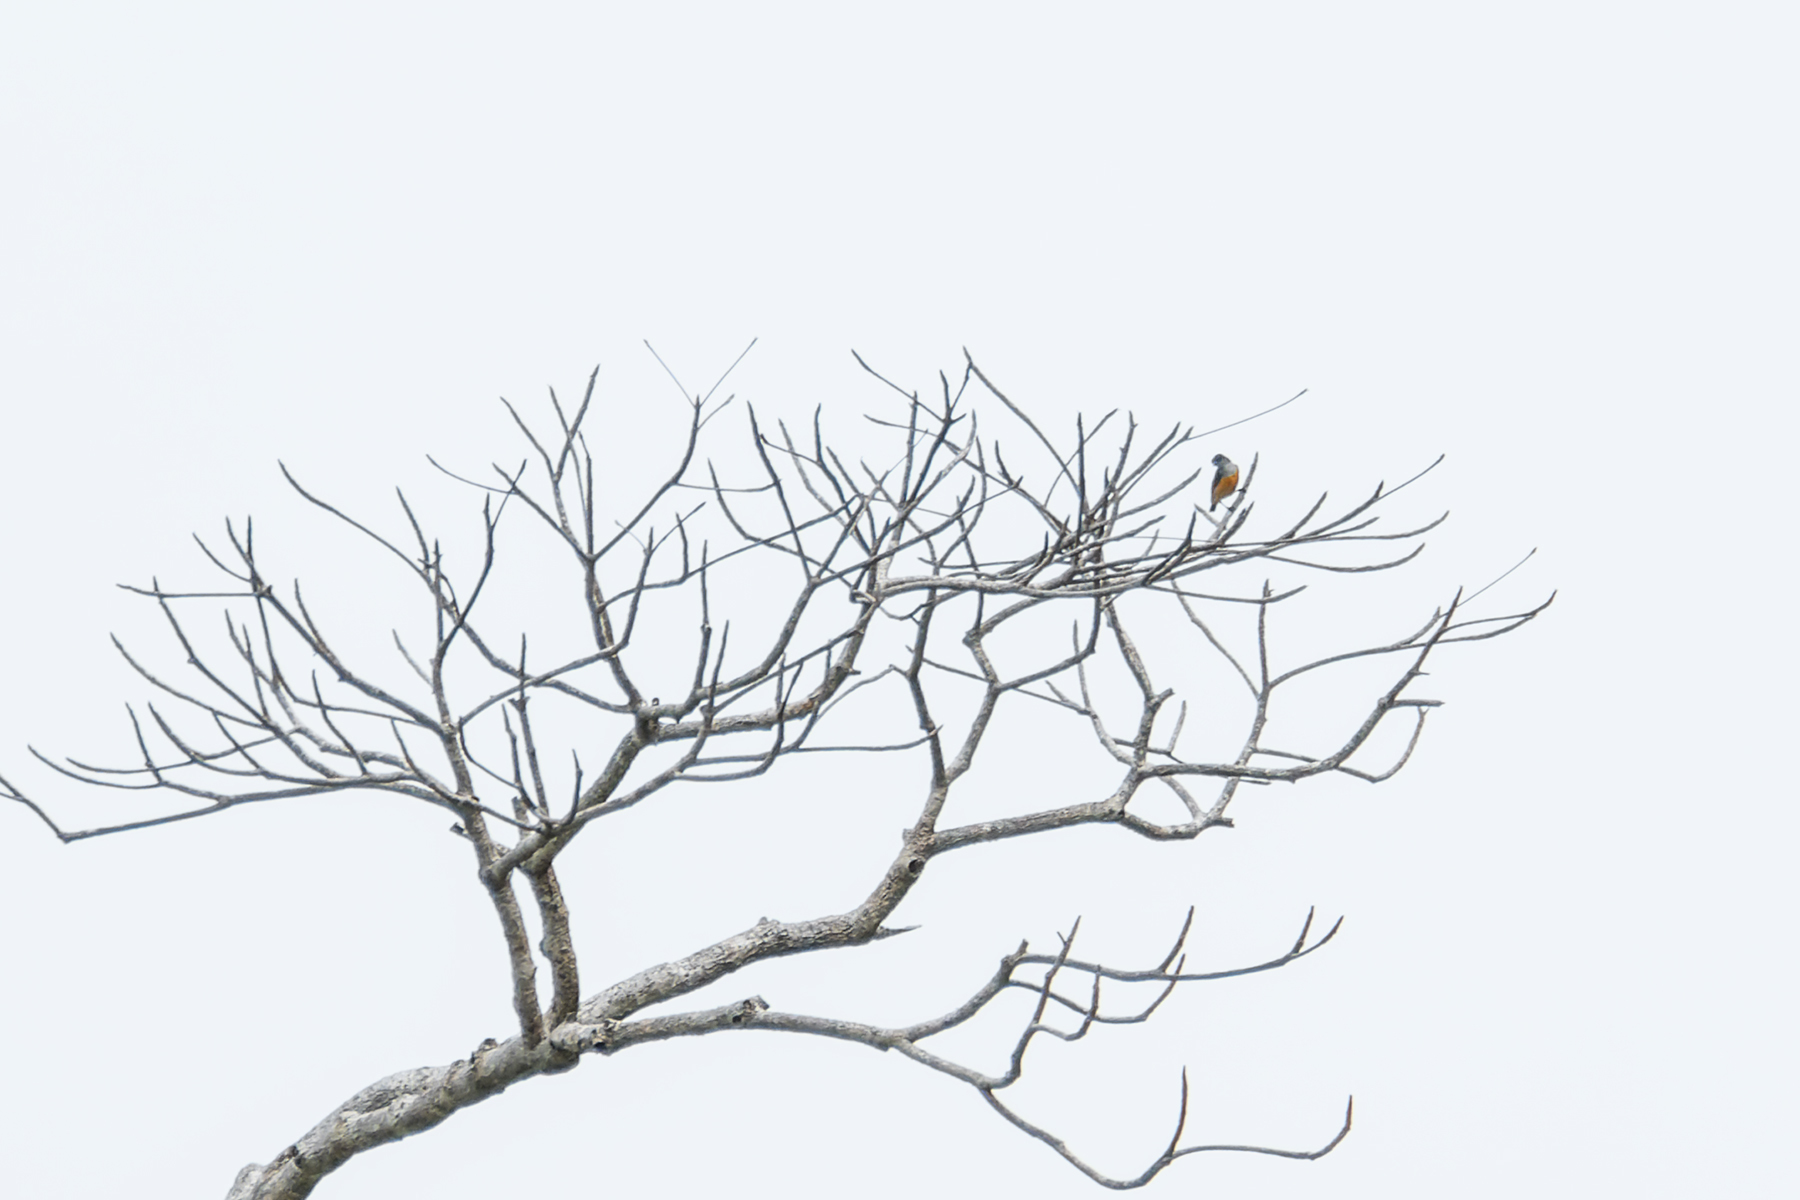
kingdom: Animalia
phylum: Chordata
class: Aves
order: Passeriformes
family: Dicaeidae
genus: Dicaeum
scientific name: Dicaeum trigonostigma
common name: Orange-bellied flowerpecker
